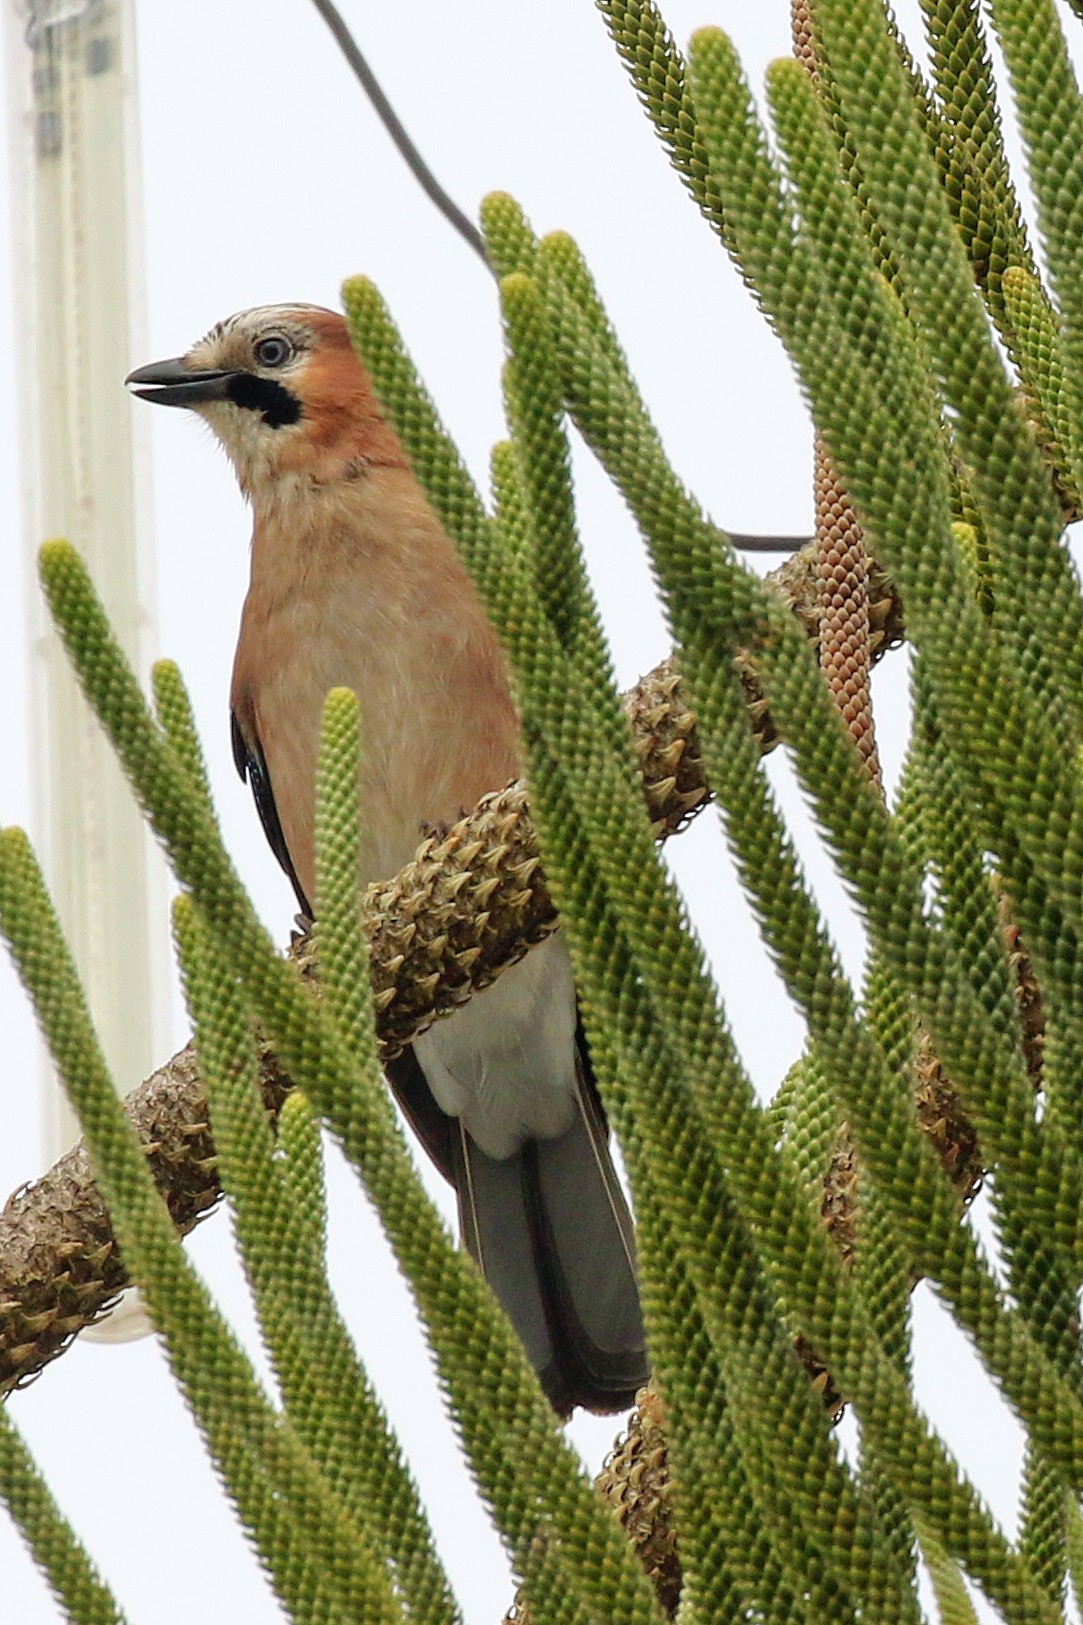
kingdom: Animalia
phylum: Chordata
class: Aves
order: Passeriformes
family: Corvidae
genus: Garrulus
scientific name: Garrulus glandarius
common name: Eurasian jay
